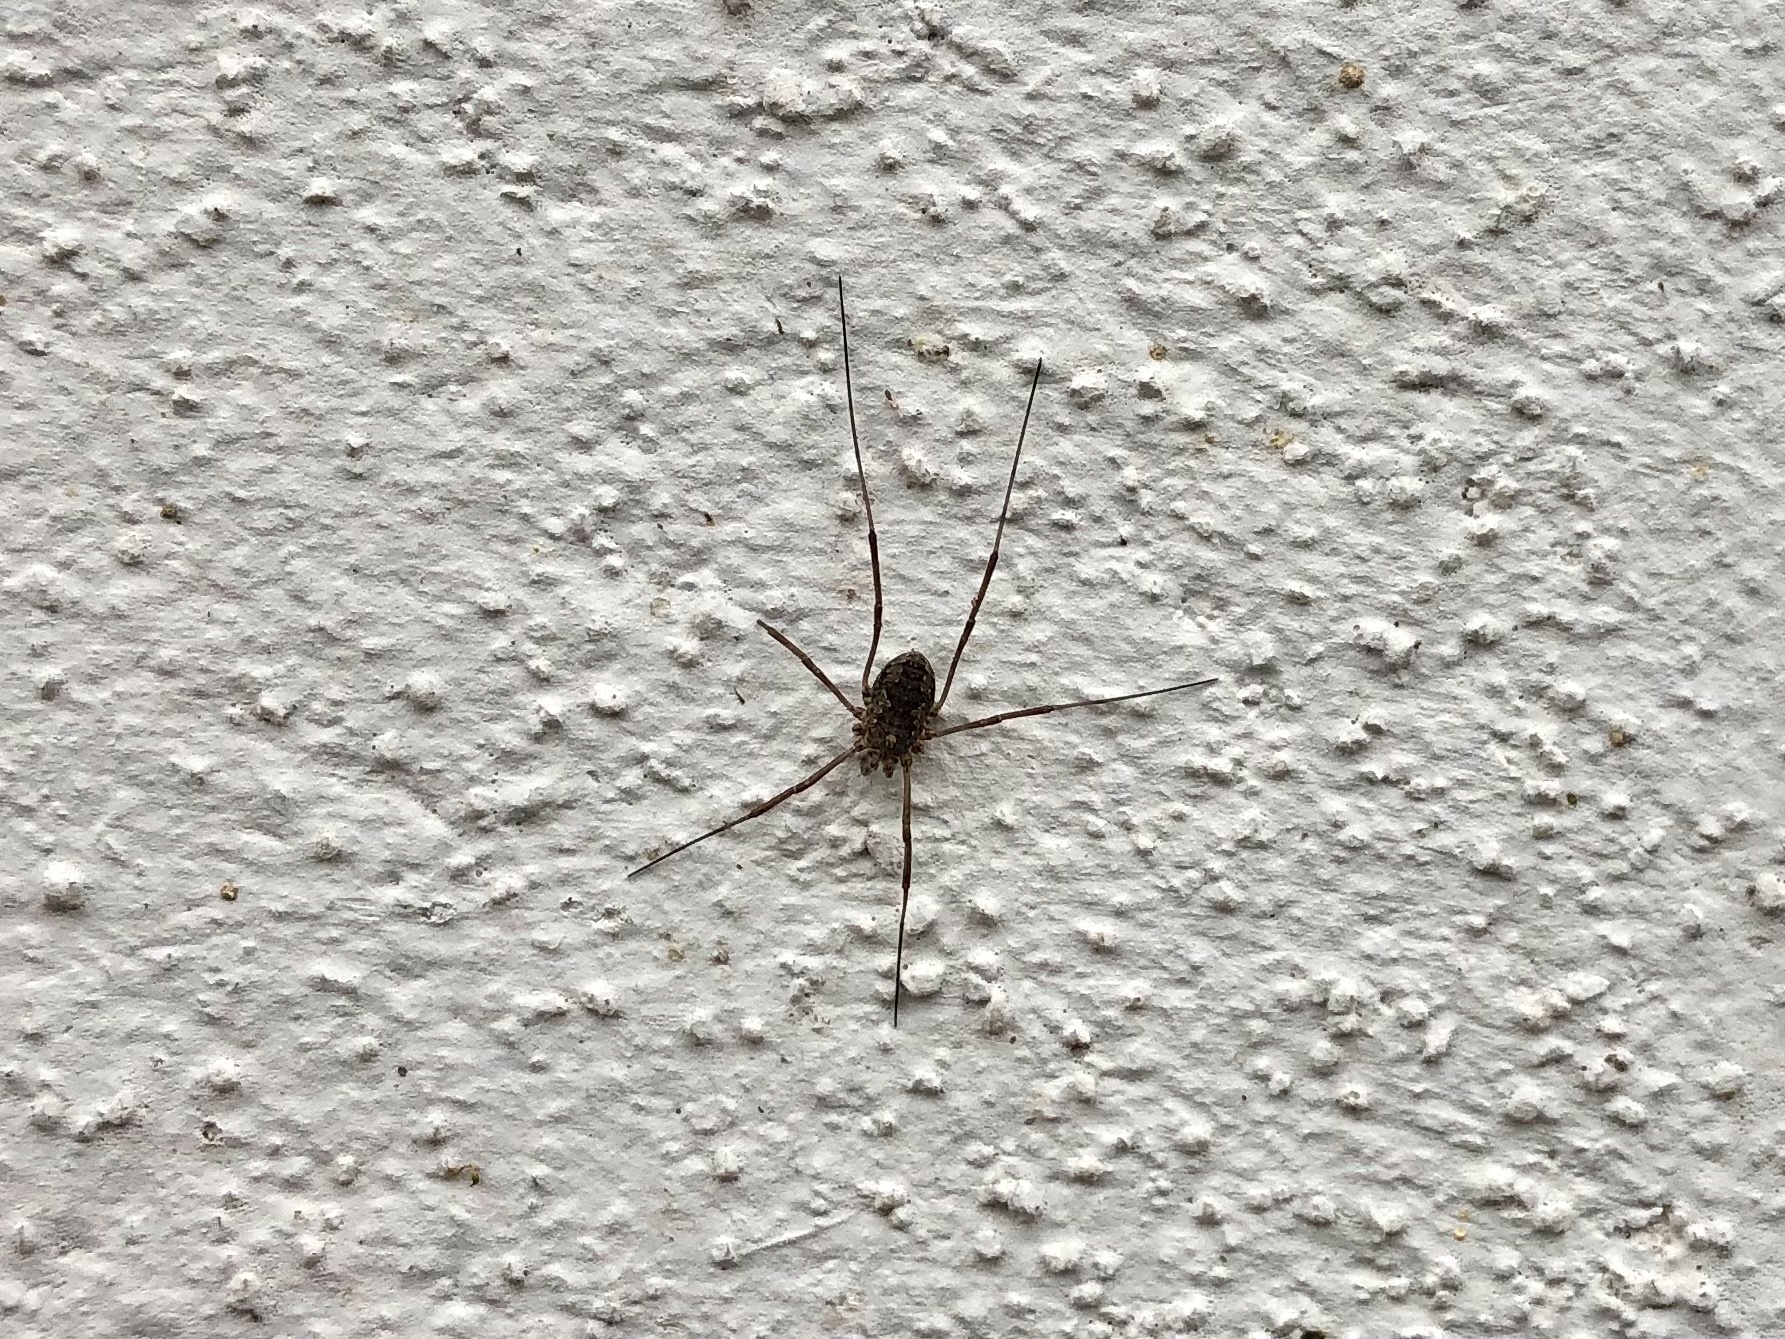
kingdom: Animalia
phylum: Arthropoda
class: Arachnida
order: Opiliones
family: Phalangiidae
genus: Phalangium
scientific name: Phalangium opilio
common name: Daddy longleg
